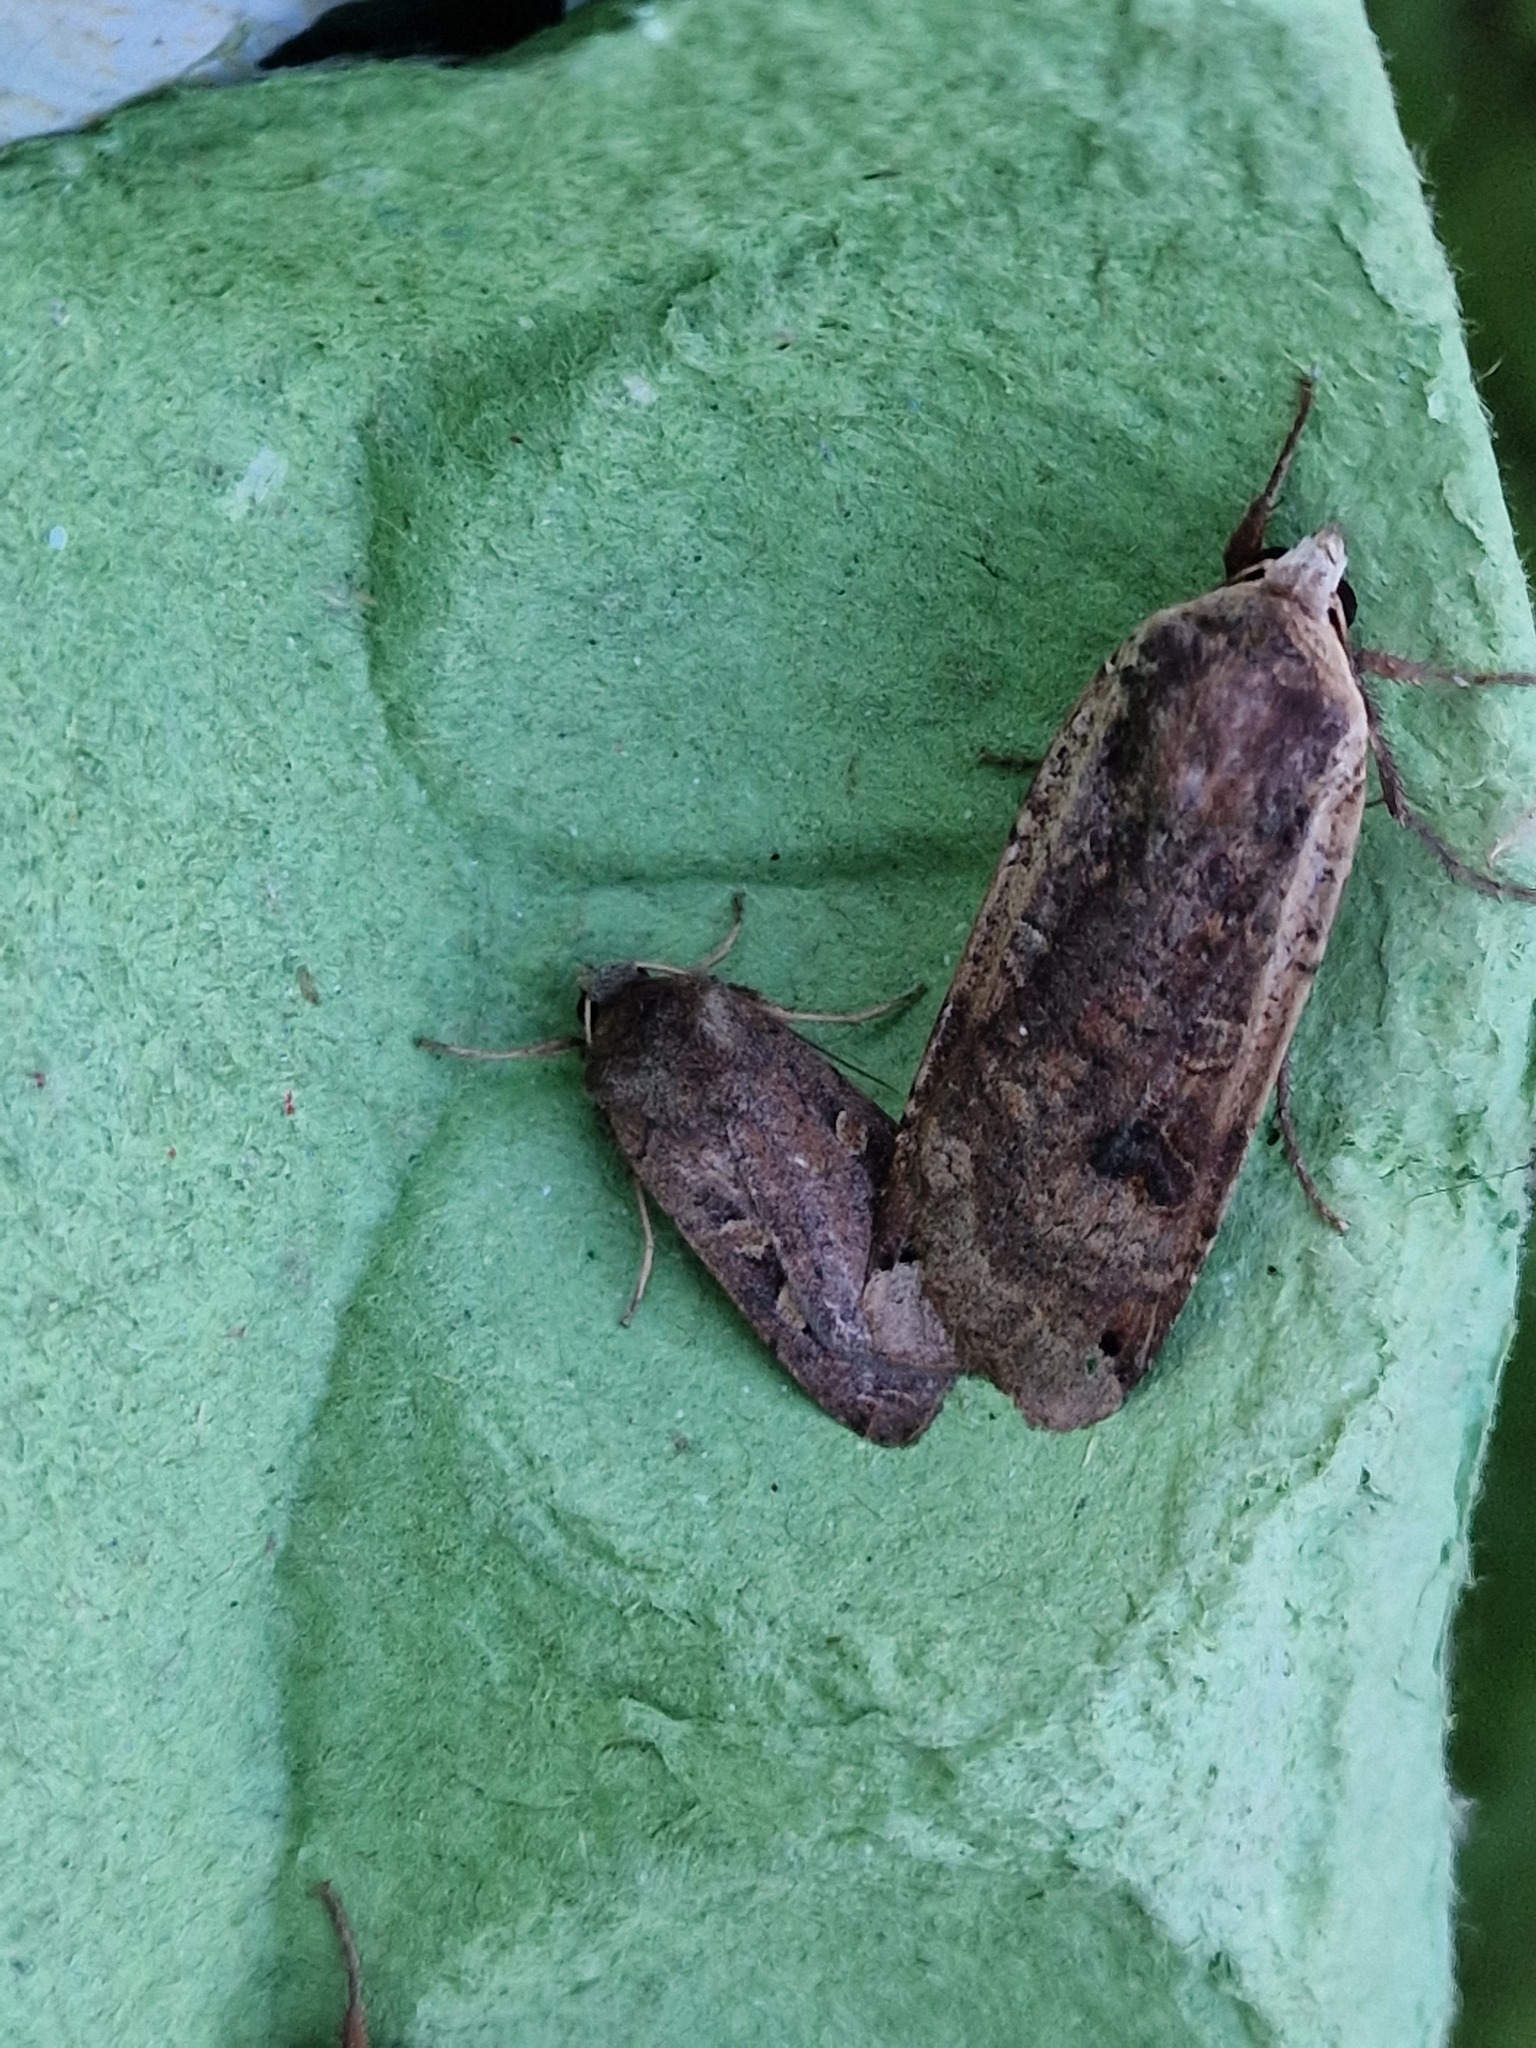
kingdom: Animalia
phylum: Arthropoda
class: Insecta
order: Lepidoptera
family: Noctuidae
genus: Noctua
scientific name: Noctua pronuba
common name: Large yellow underwing
